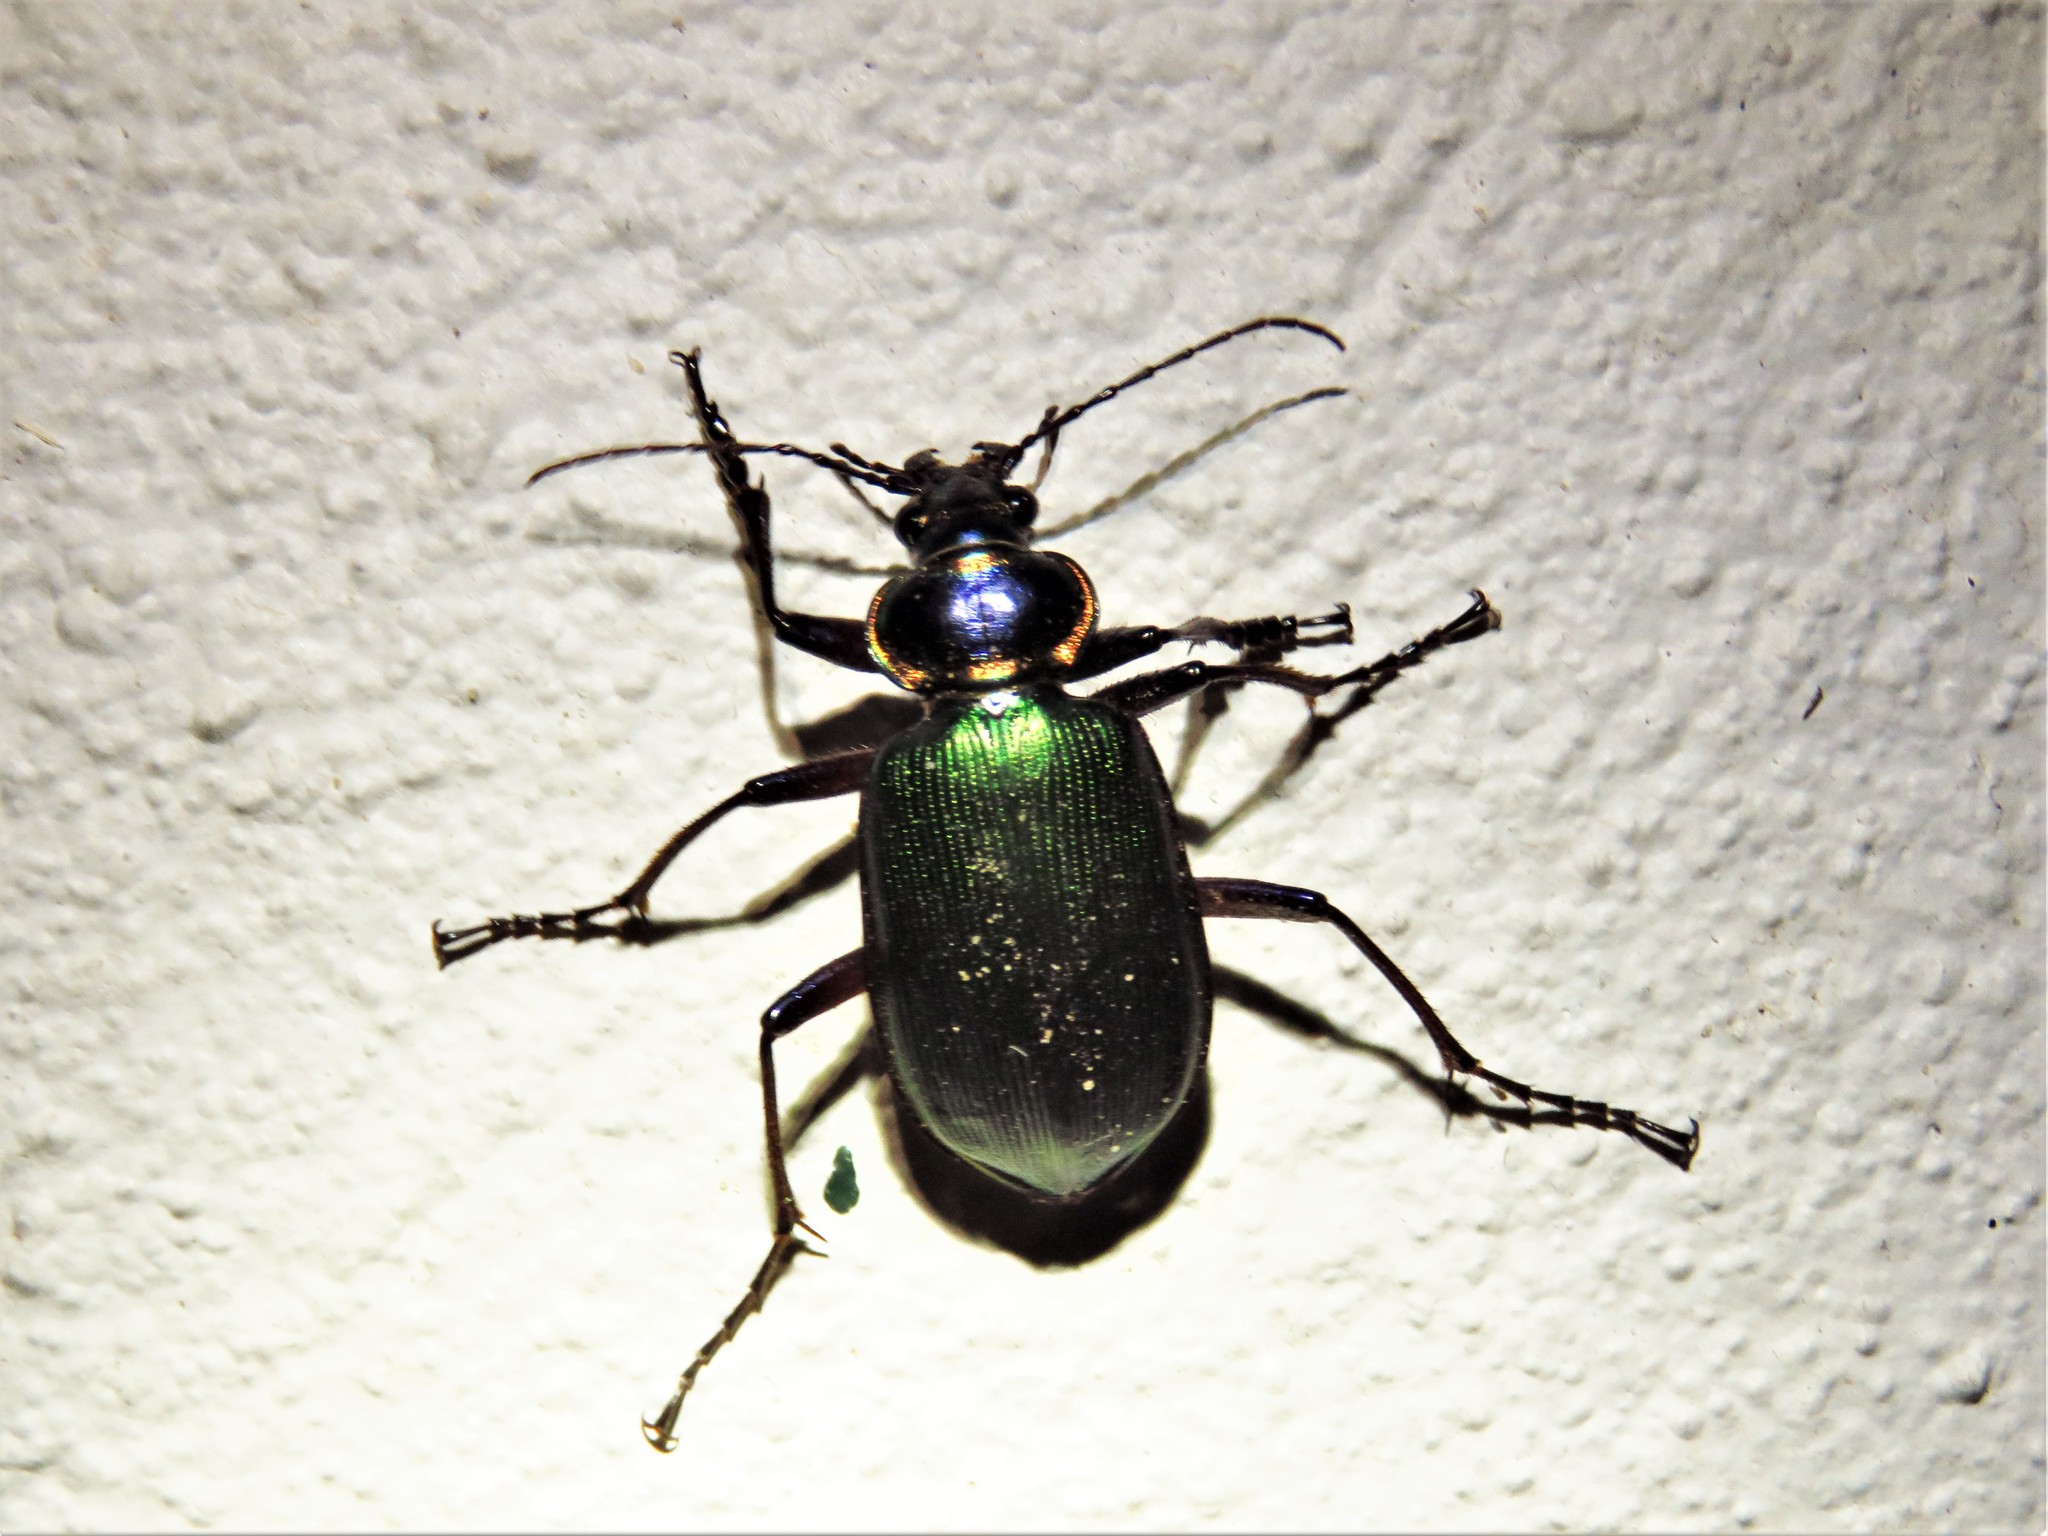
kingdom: Animalia
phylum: Arthropoda
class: Insecta
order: Coleoptera
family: Carabidae
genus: Calosoma
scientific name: Calosoma scrutator
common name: Fiery searcher beetle
